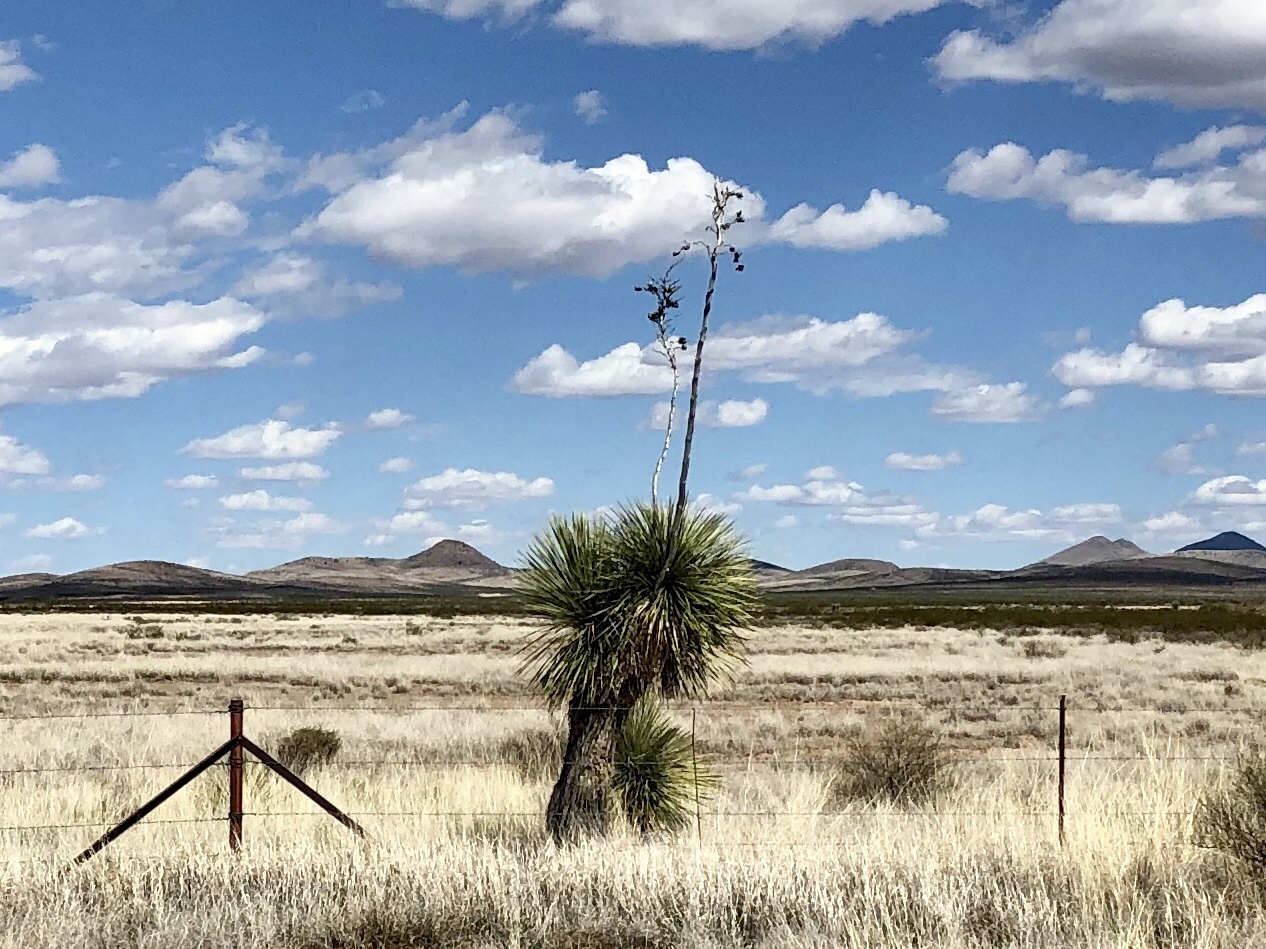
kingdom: Plantae
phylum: Tracheophyta
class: Liliopsida
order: Asparagales
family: Asparagaceae
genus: Yucca
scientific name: Yucca elata
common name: Palmella
